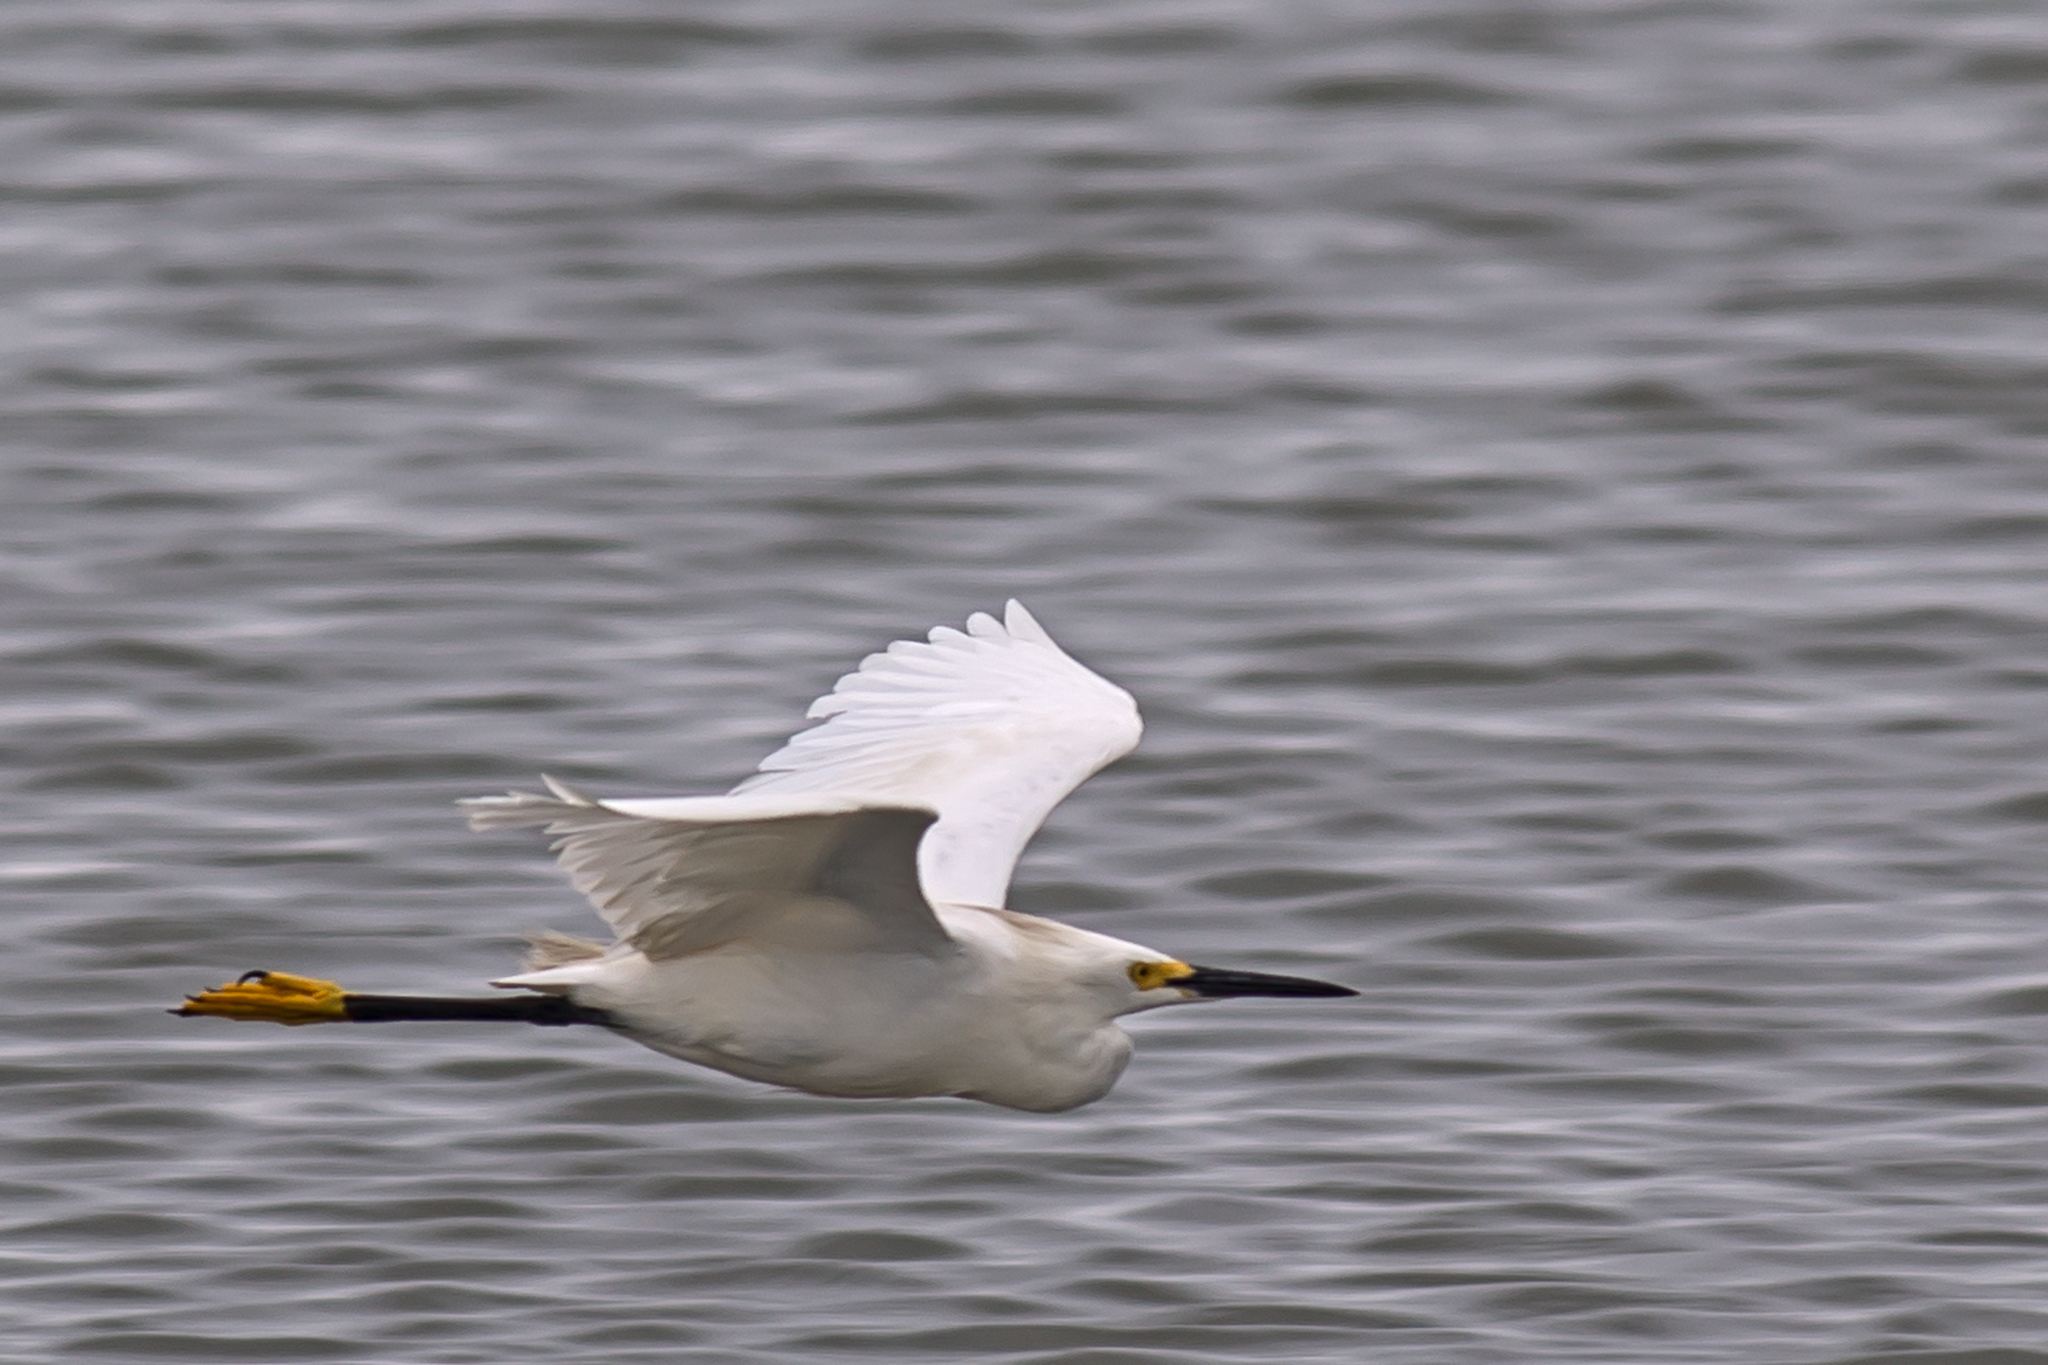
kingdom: Animalia
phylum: Chordata
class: Aves
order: Pelecaniformes
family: Ardeidae
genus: Egretta
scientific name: Egretta thula
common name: Snowy egret
